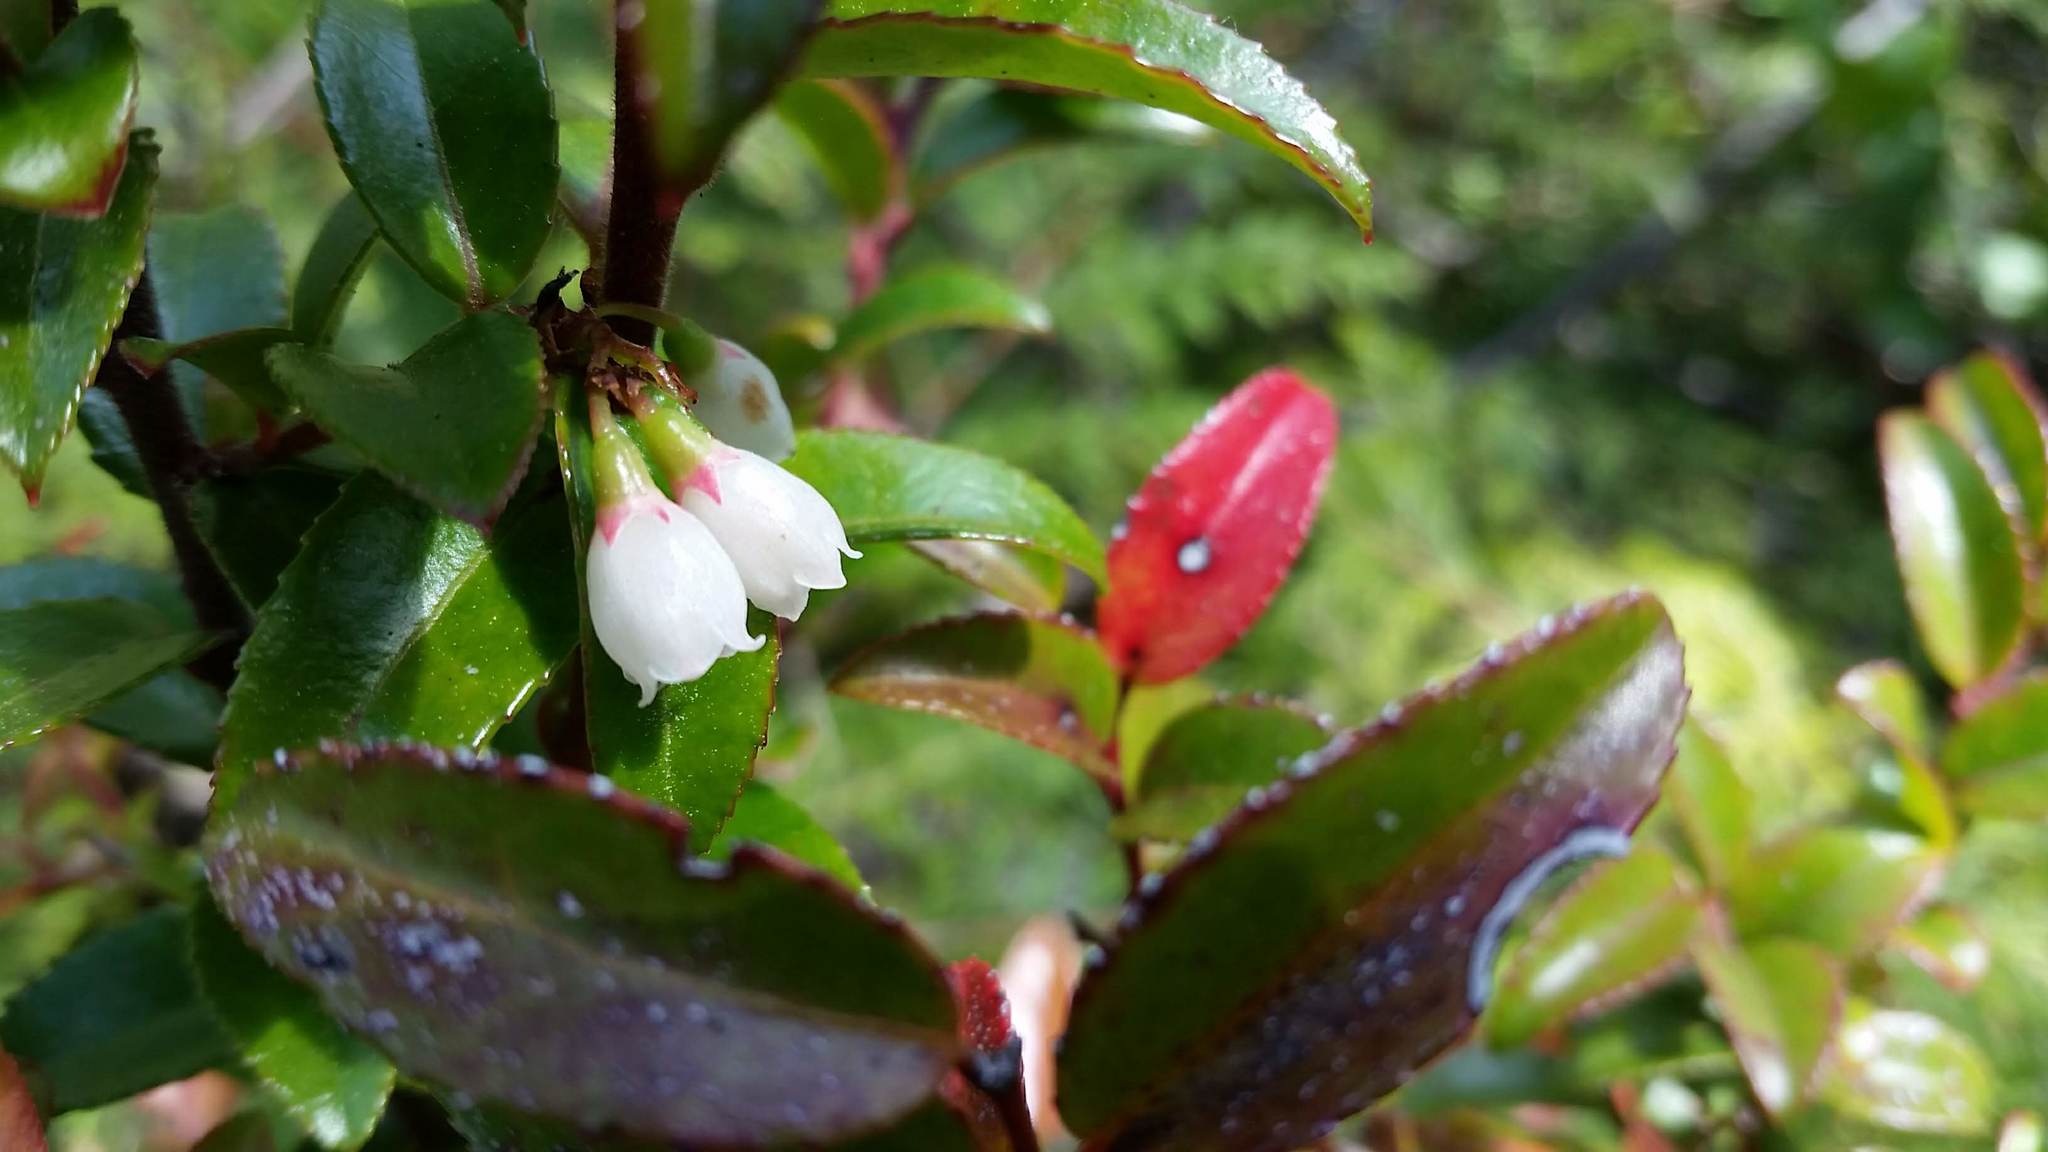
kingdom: Plantae
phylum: Tracheophyta
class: Magnoliopsida
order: Ericales
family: Ericaceae
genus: Vaccinium
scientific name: Vaccinium ovatum
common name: California-huckleberry
